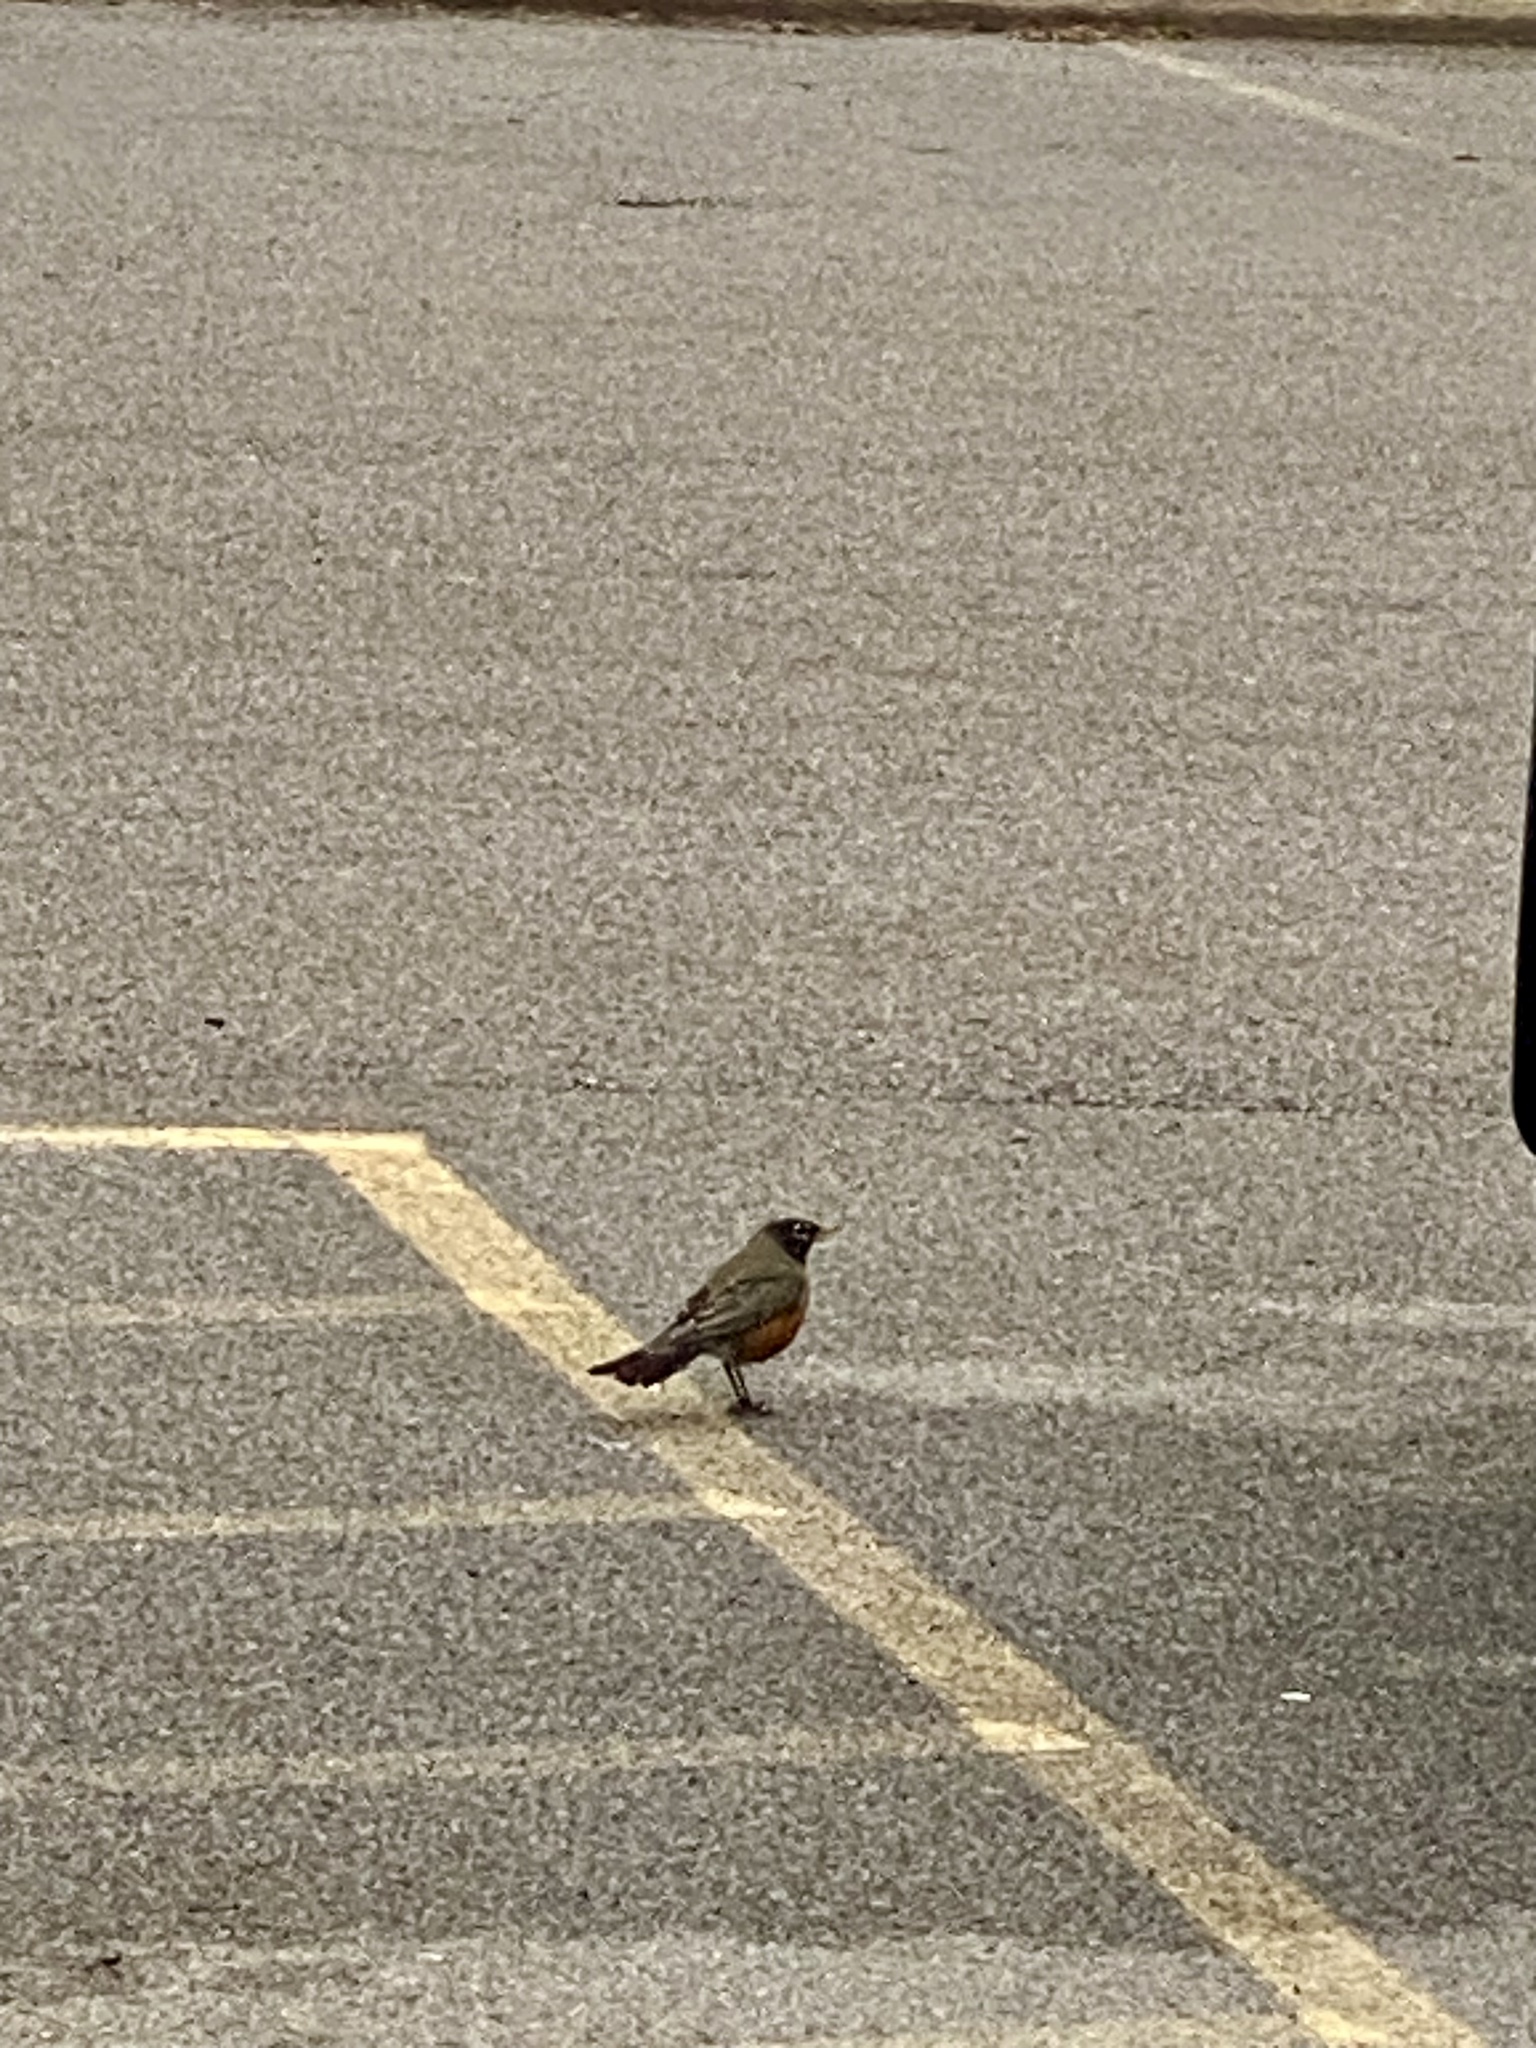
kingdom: Animalia
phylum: Chordata
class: Aves
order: Passeriformes
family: Turdidae
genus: Turdus
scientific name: Turdus migratorius
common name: American robin
